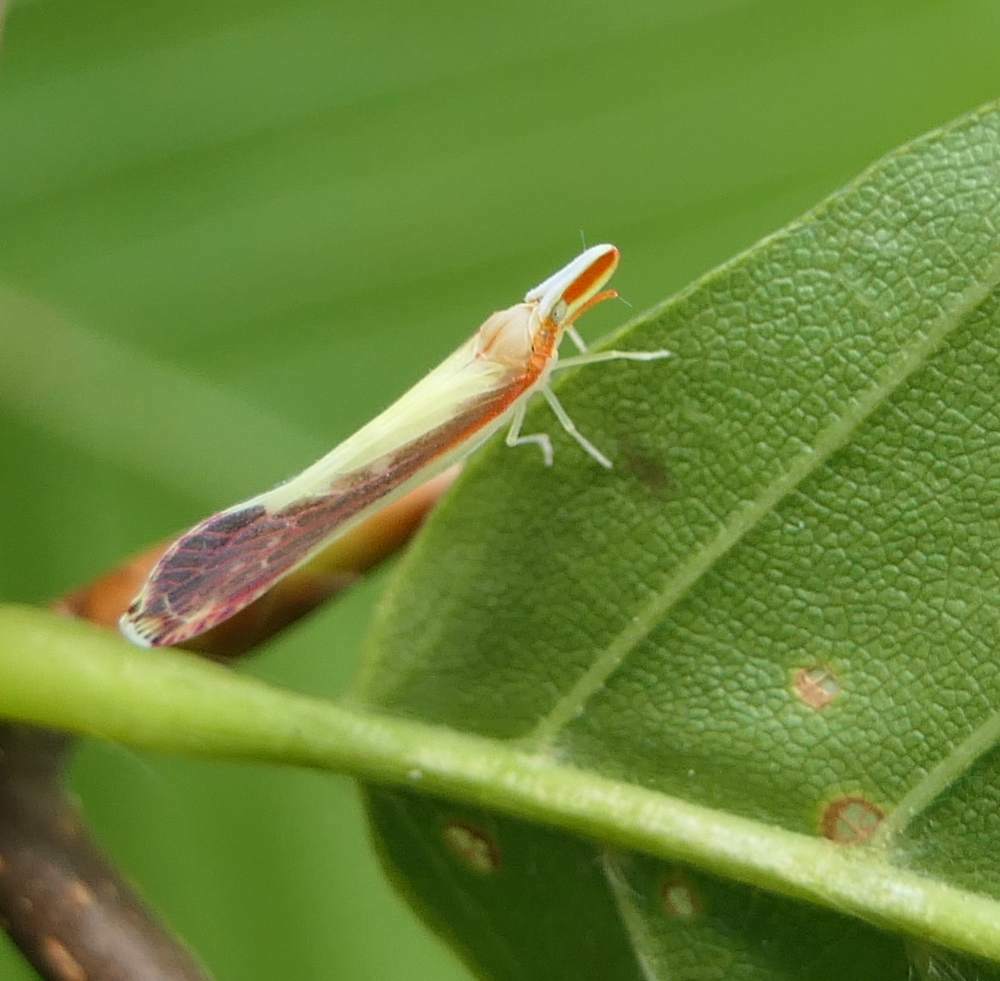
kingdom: Animalia
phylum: Arthropoda
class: Insecta
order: Hemiptera
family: Derbidae
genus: Shellenius
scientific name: Shellenius ballii
